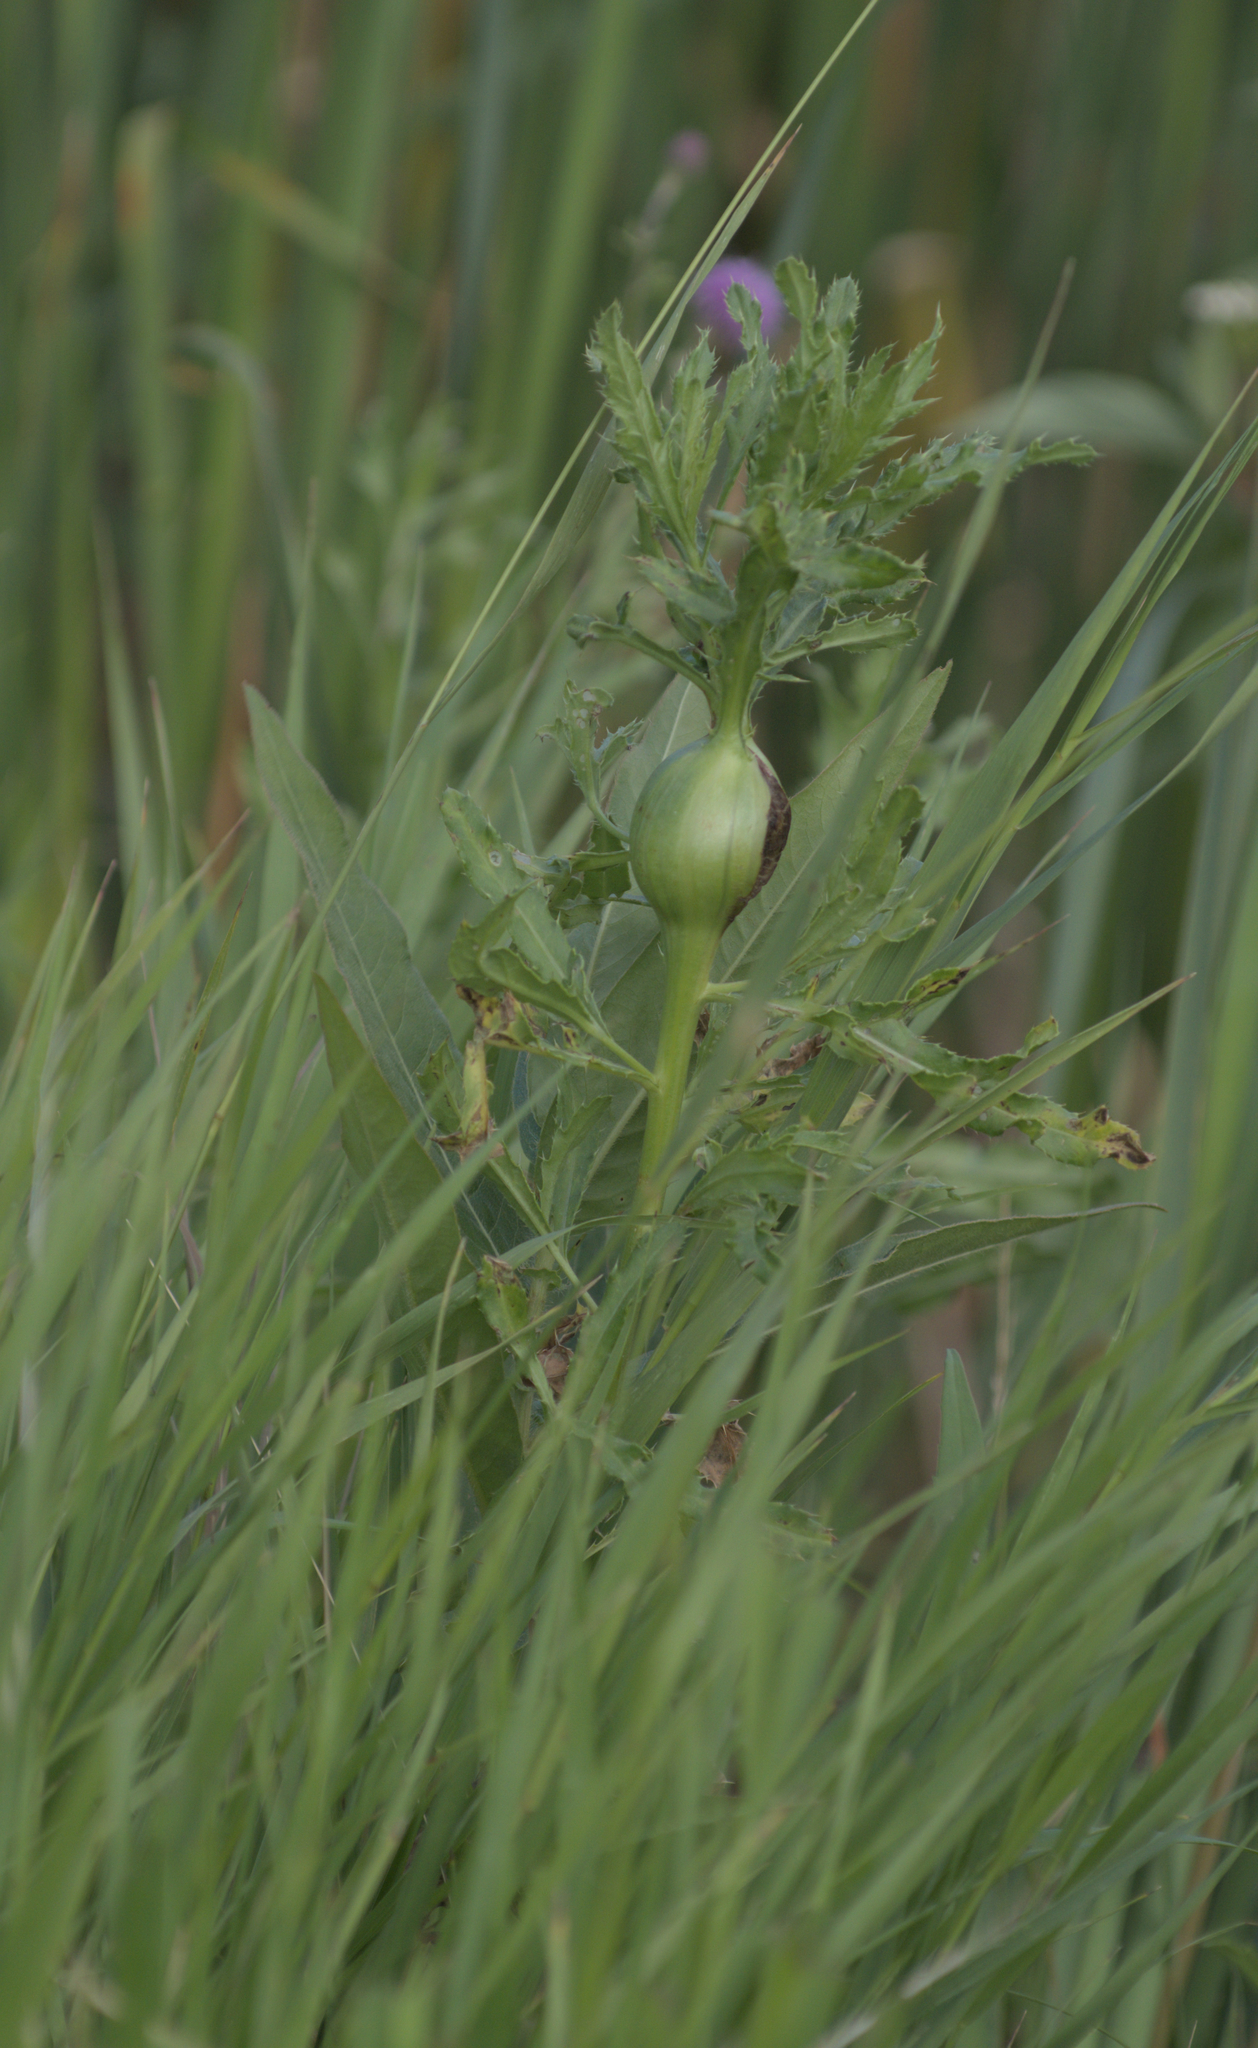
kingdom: Animalia
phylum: Arthropoda
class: Insecta
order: Diptera
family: Tephritidae
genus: Urophora
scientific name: Urophora cardui
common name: Fruit fly
